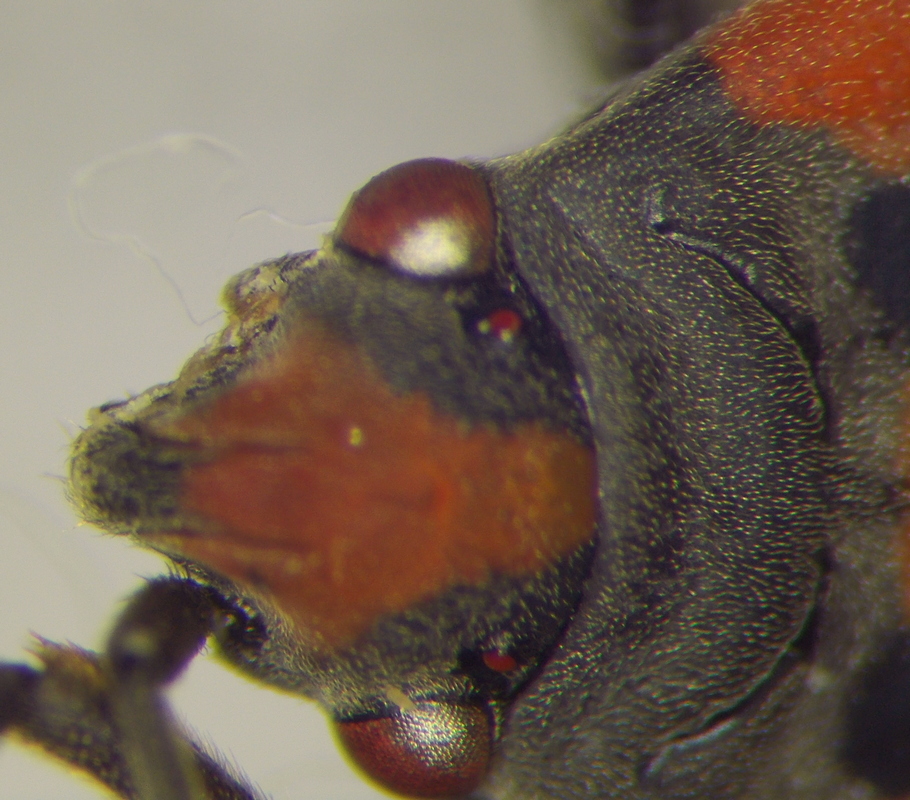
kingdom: Animalia
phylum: Arthropoda
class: Insecta
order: Hemiptera
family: Lygaeidae
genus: Lygaeus
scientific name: Lygaeus equestris
